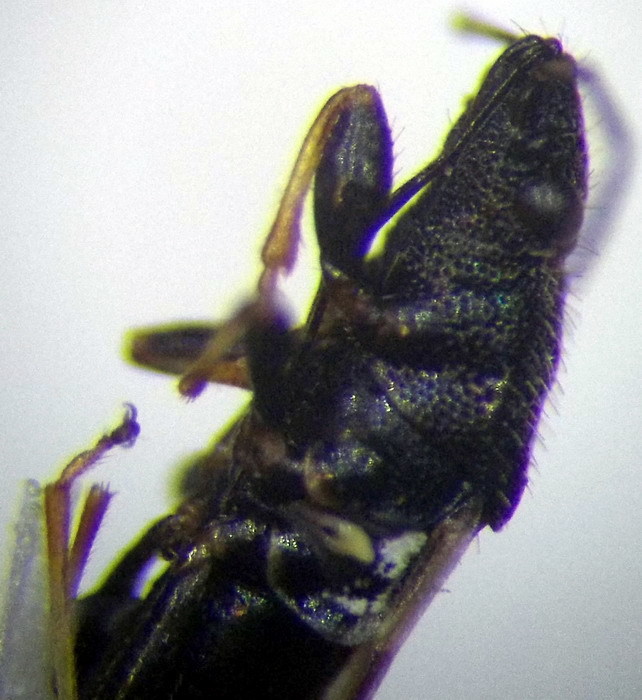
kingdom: Animalia
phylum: Arthropoda
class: Insecta
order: Hemiptera
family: Oxycarenidae
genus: Metopoplax
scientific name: Metopoplax origani
